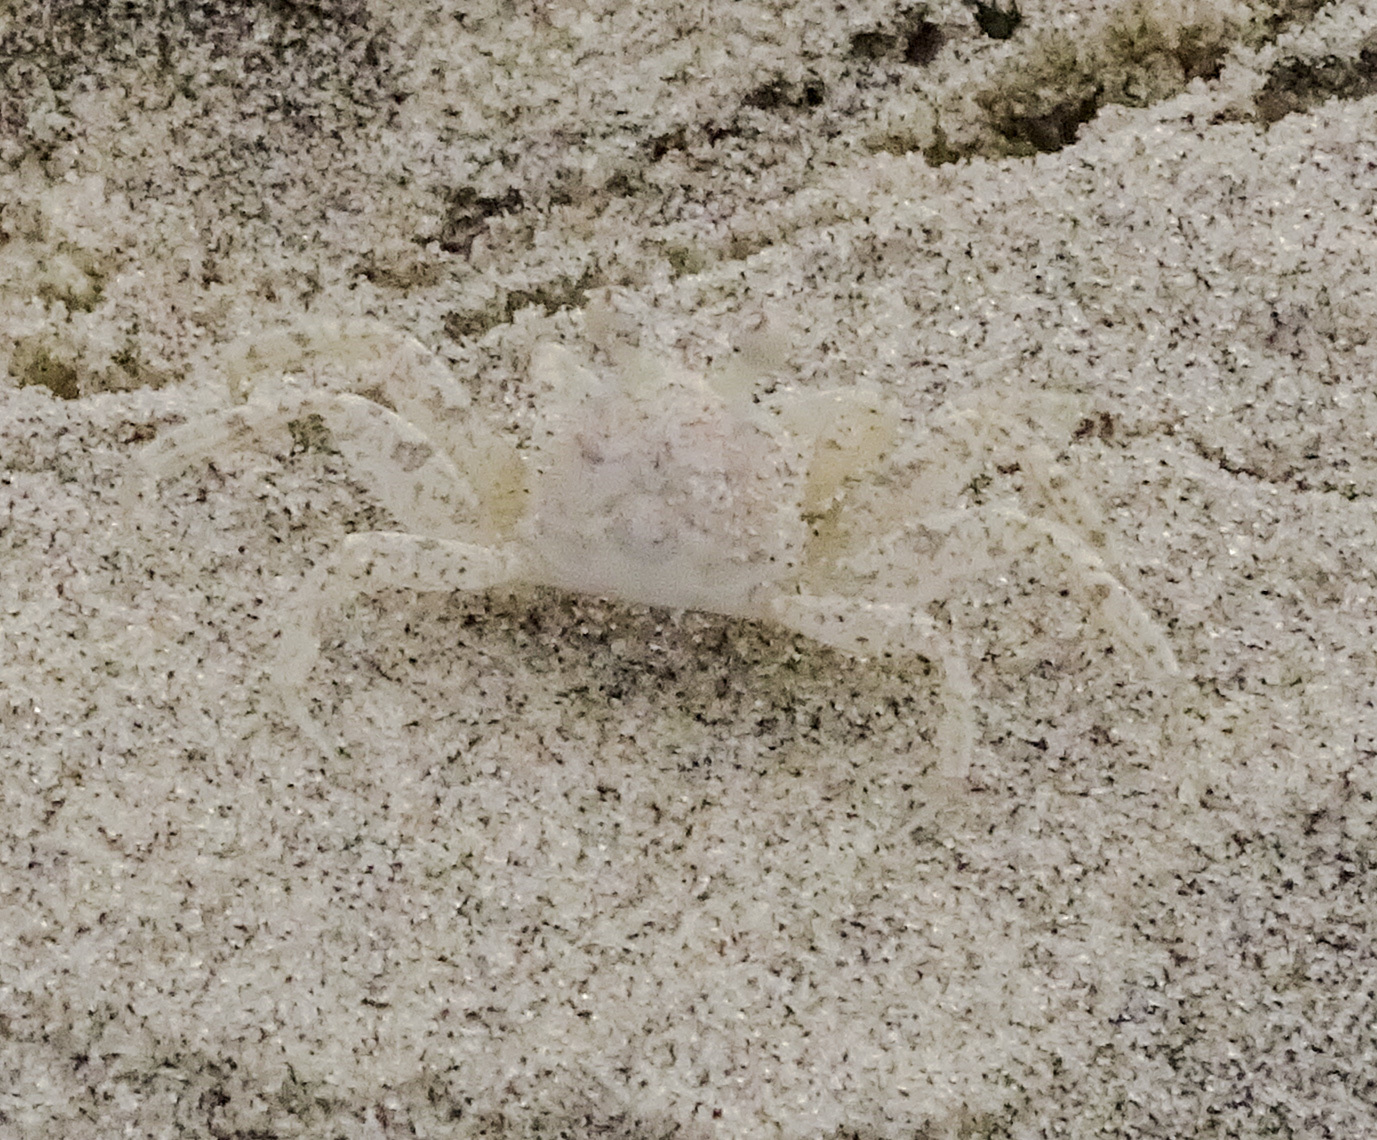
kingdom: Animalia
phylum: Arthropoda
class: Malacostraca
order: Decapoda
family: Ocypodidae
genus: Ocypode
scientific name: Ocypode quadrata
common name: Ghost crab
